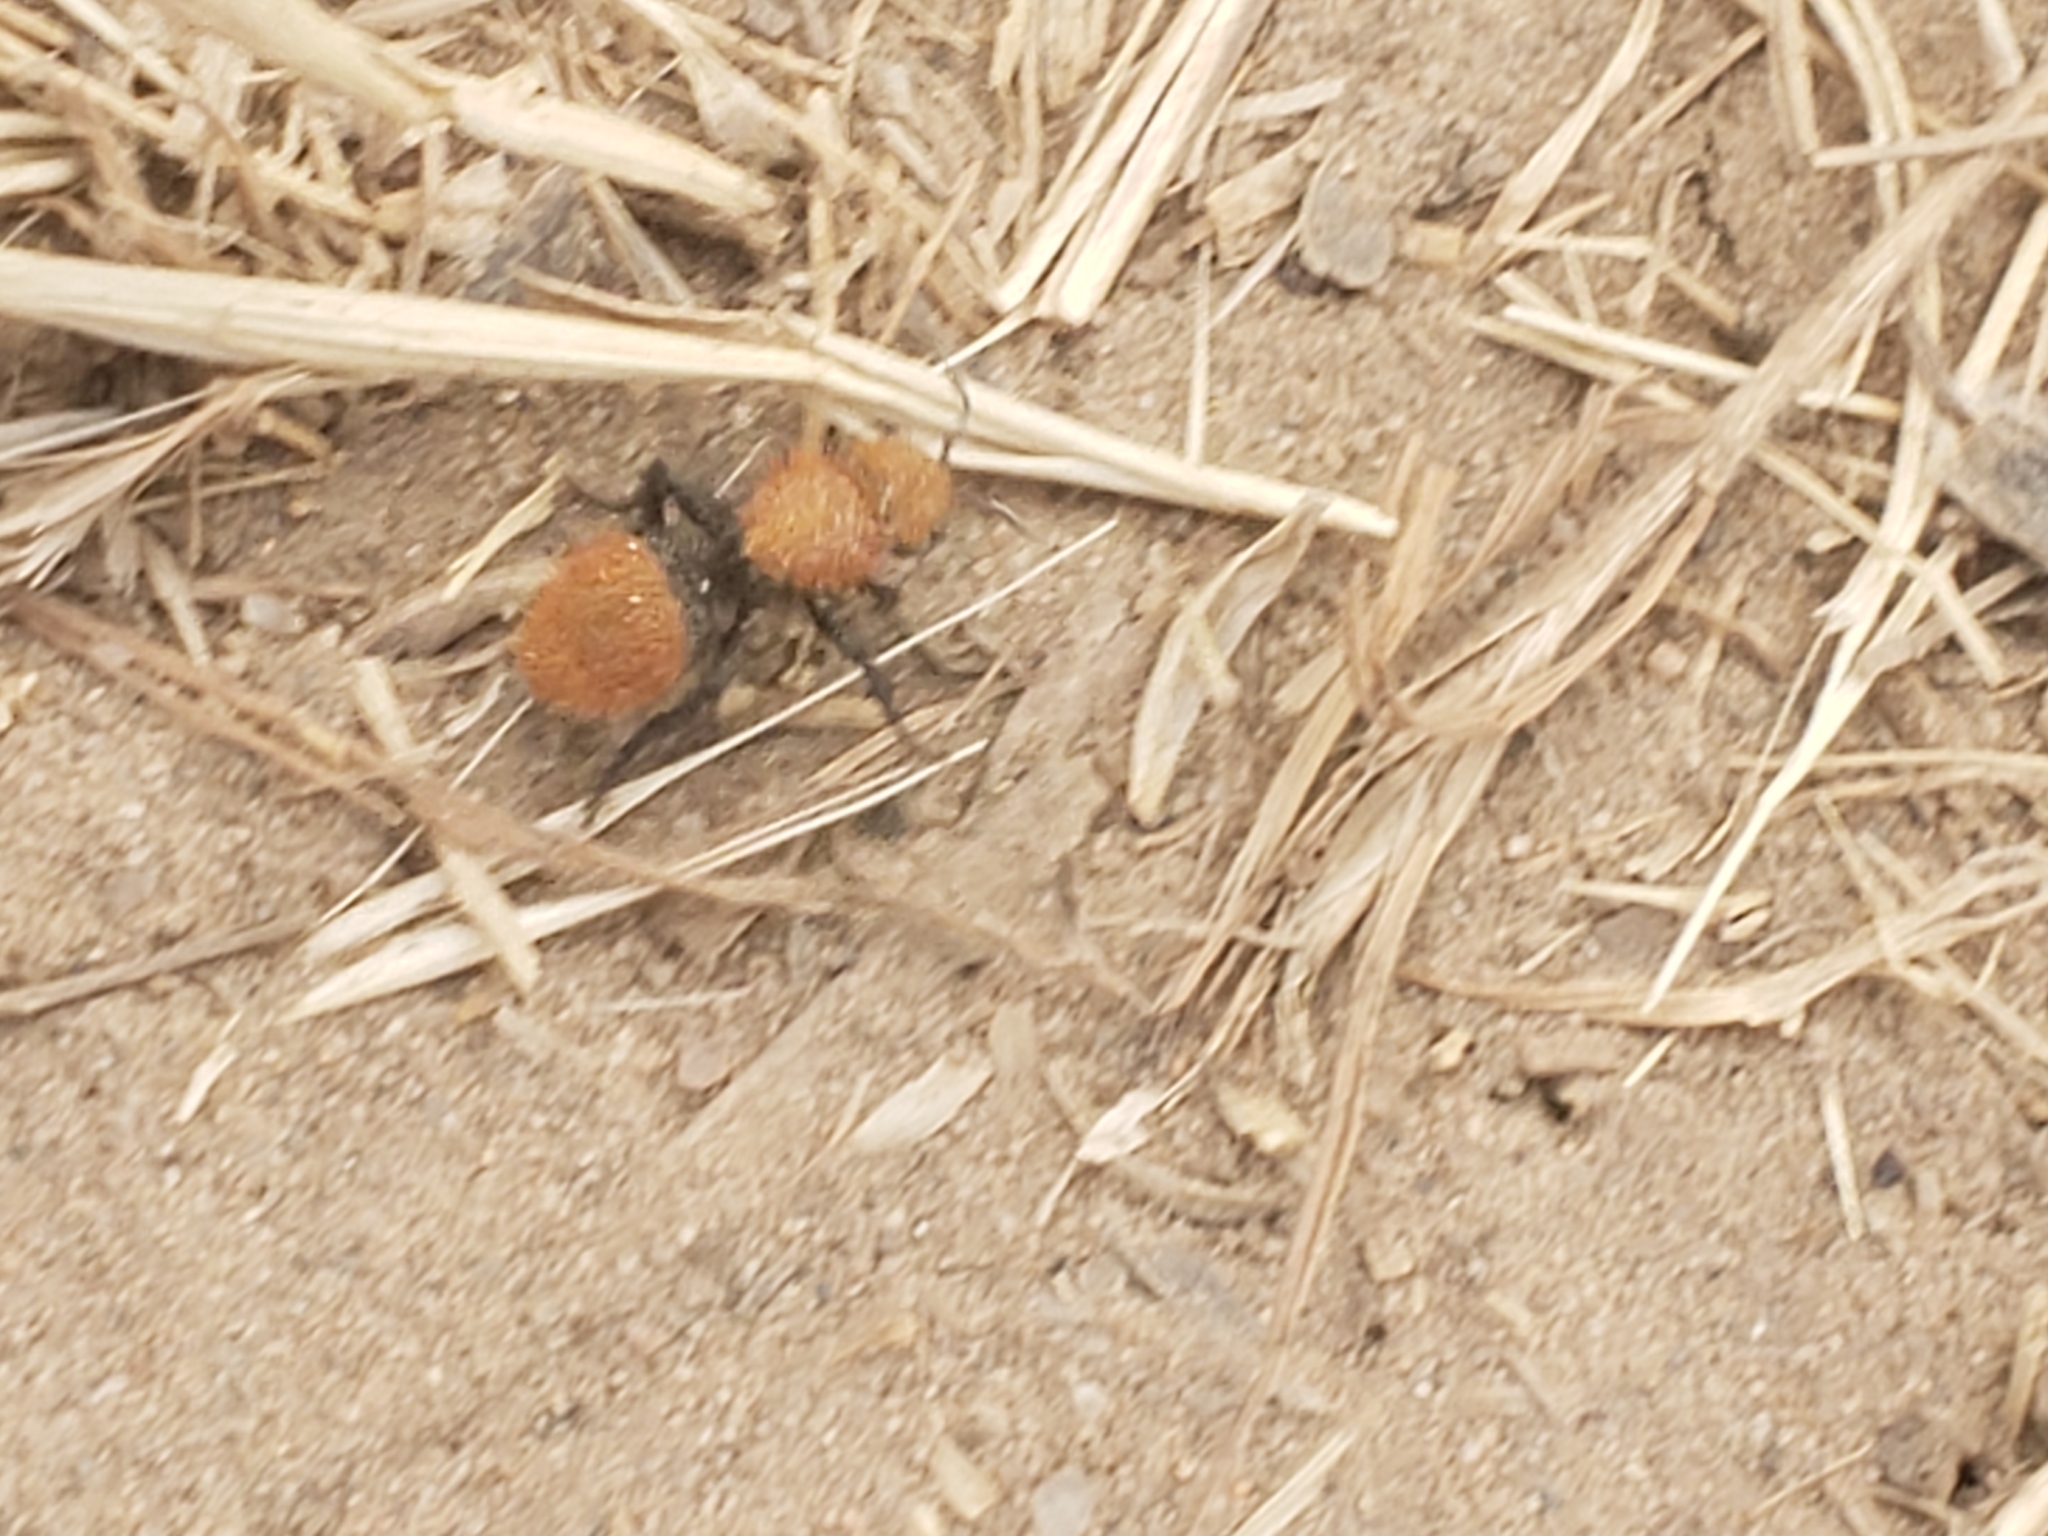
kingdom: Animalia
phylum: Arthropoda
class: Insecta
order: Hymenoptera
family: Mutillidae
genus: Dasymutilla
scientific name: Dasymutilla
